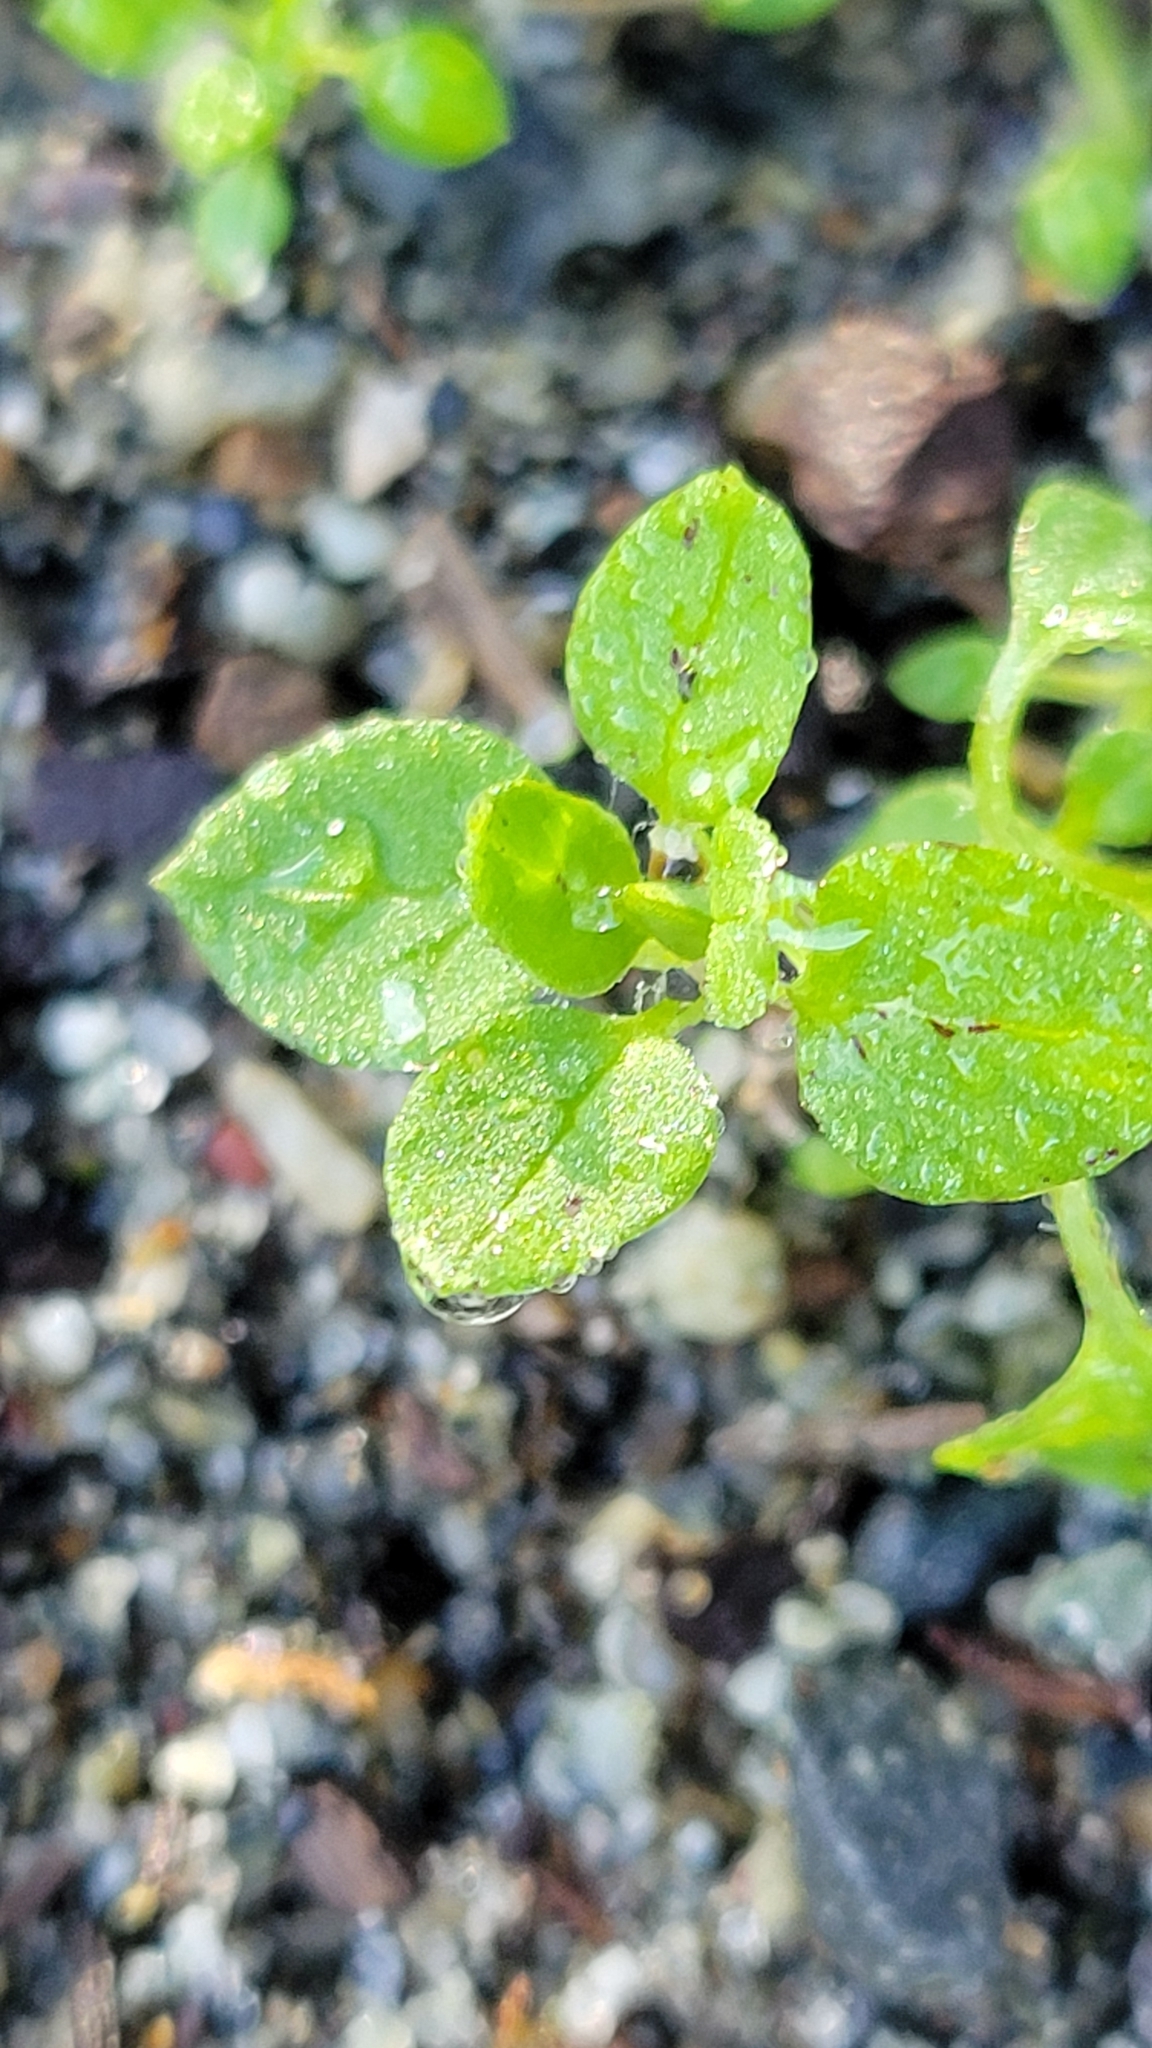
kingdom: Plantae
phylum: Tracheophyta
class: Magnoliopsida
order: Caryophyllales
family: Caryophyllaceae
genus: Stellaria
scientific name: Stellaria media
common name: Common chickweed
